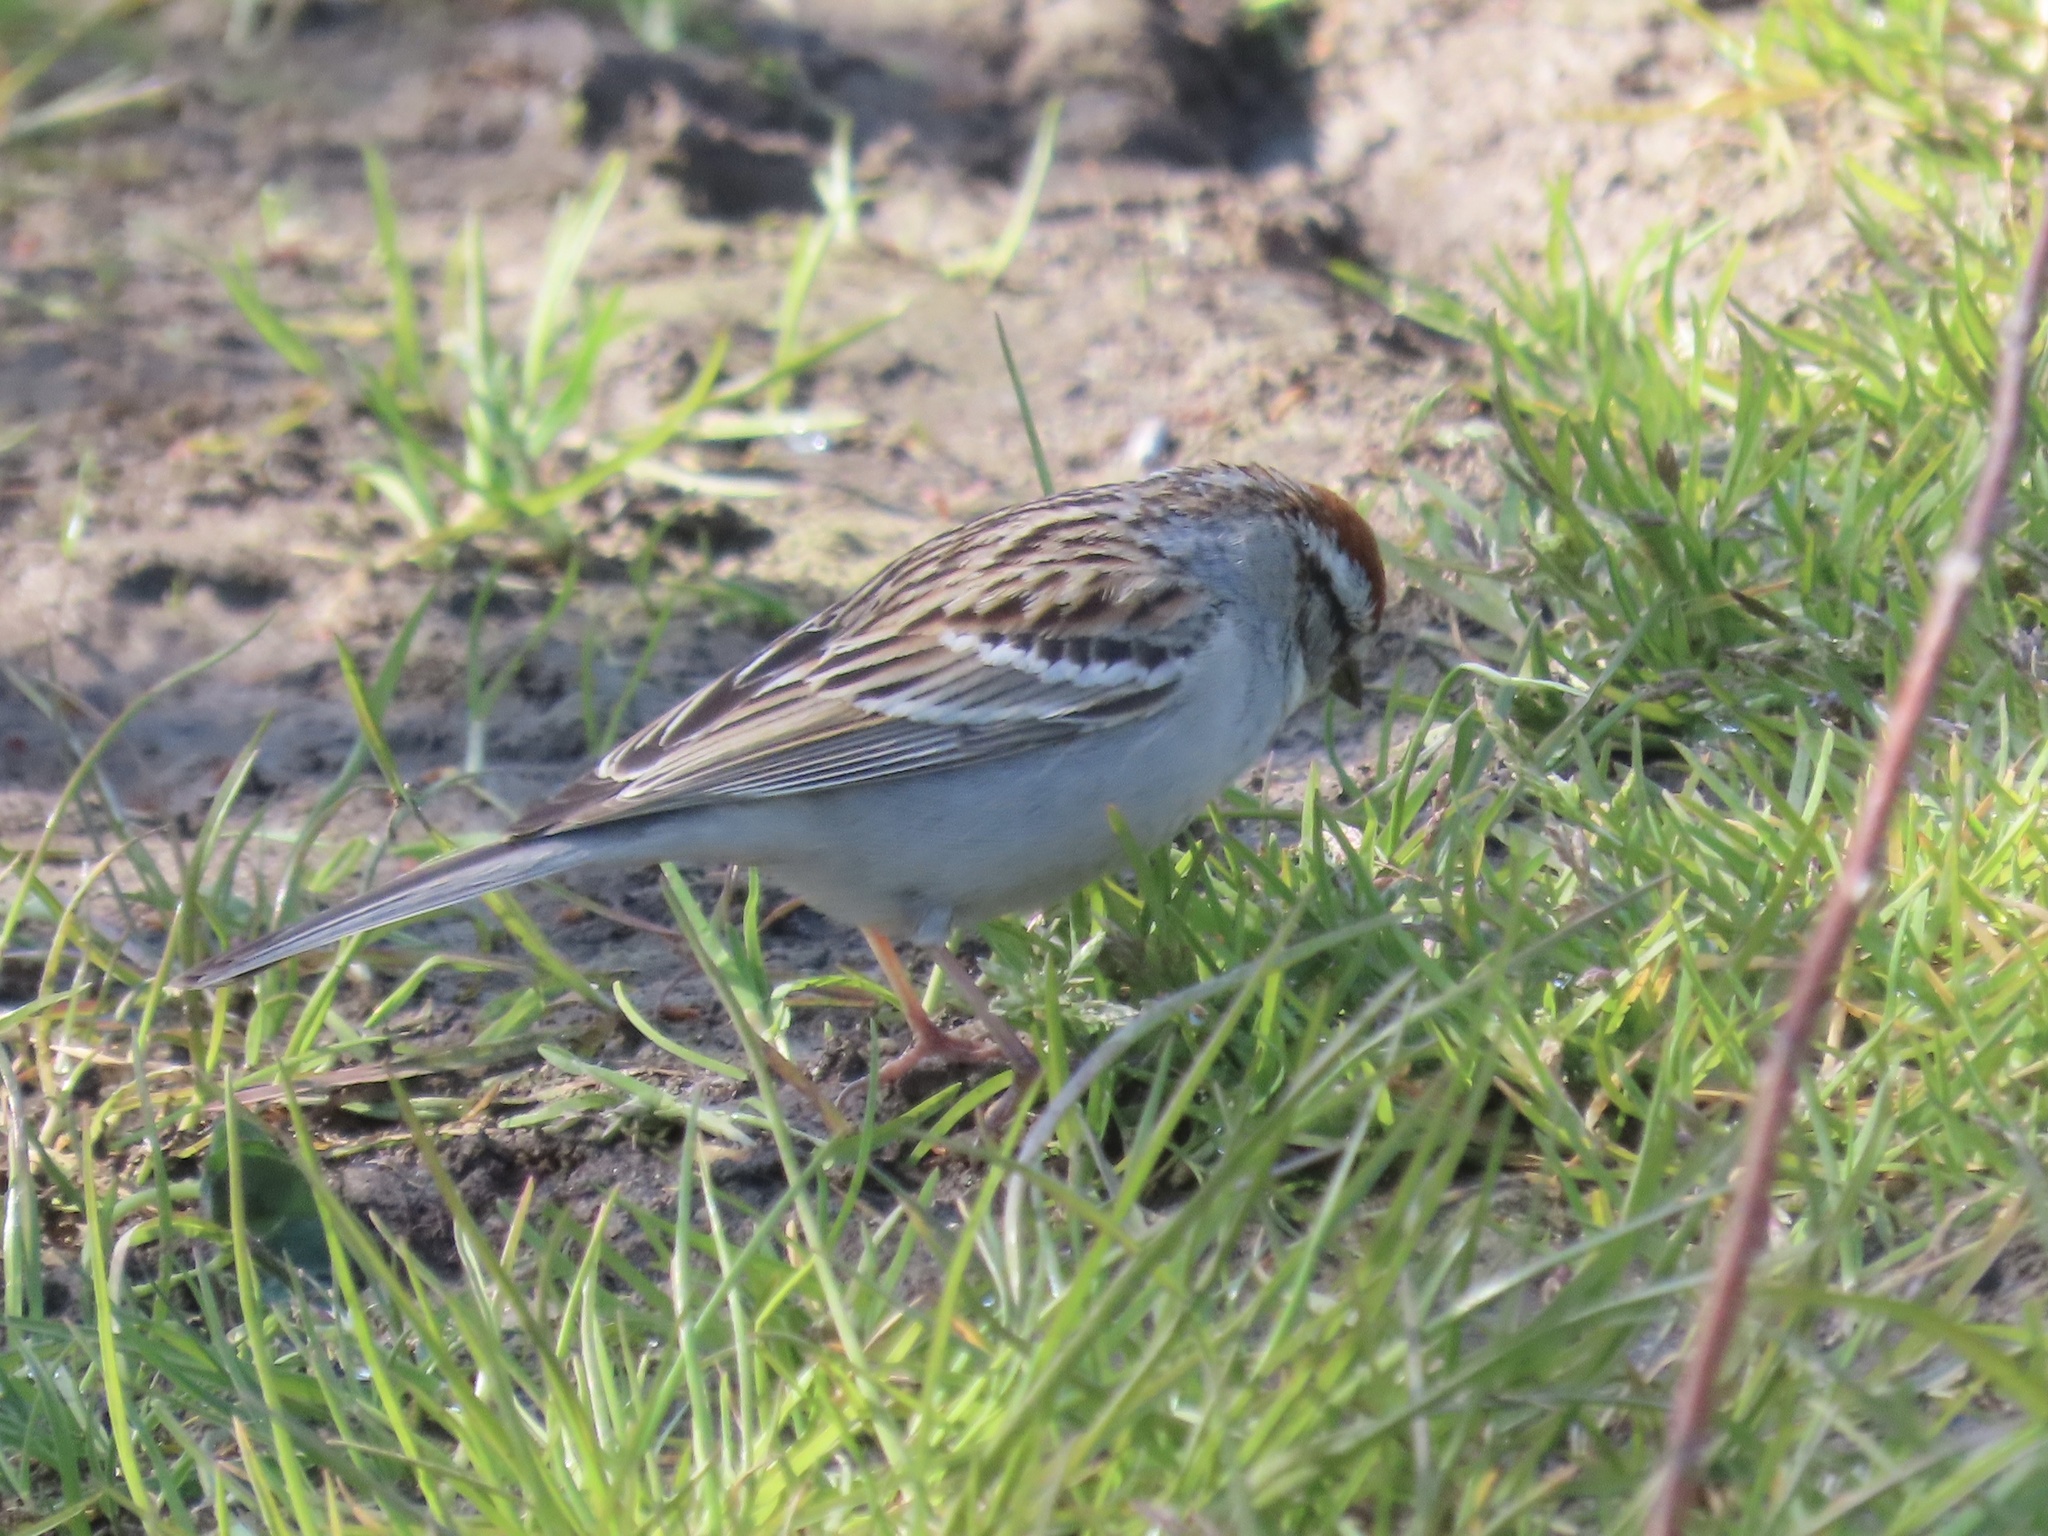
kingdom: Animalia
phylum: Chordata
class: Aves
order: Passeriformes
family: Passerellidae
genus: Spizella
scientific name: Spizella passerina
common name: Chipping sparrow
